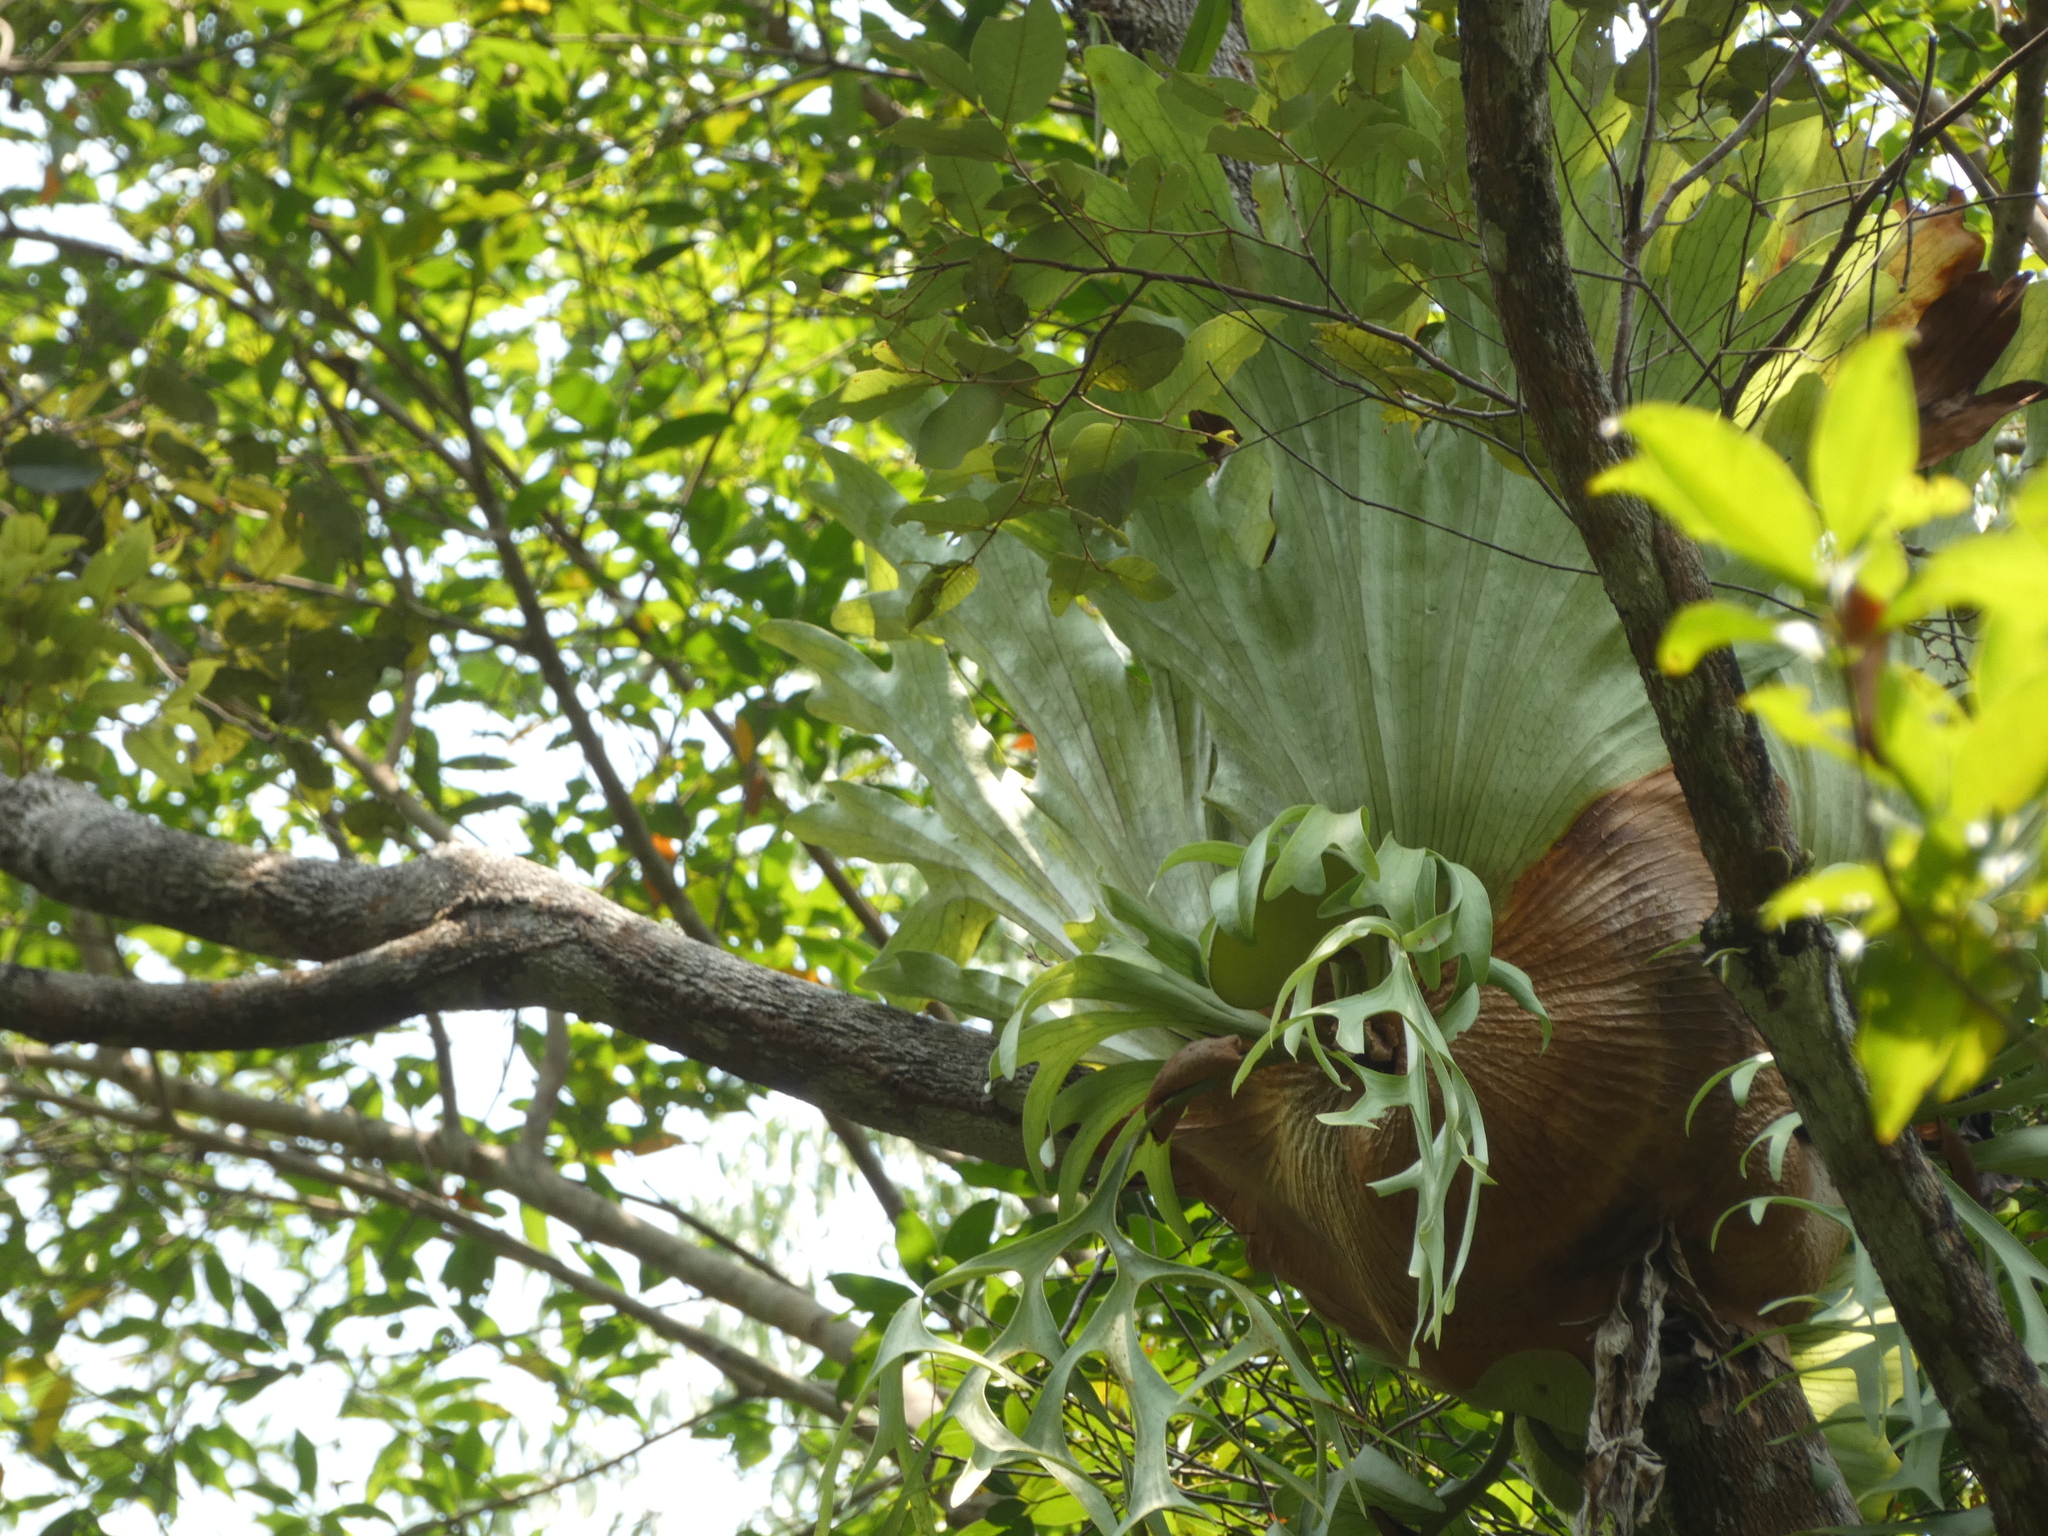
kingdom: Plantae
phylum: Tracheophyta
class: Polypodiopsida
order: Polypodiales
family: Polypodiaceae
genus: Platycerium
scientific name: Platycerium coronarium
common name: Elkhorn fern
